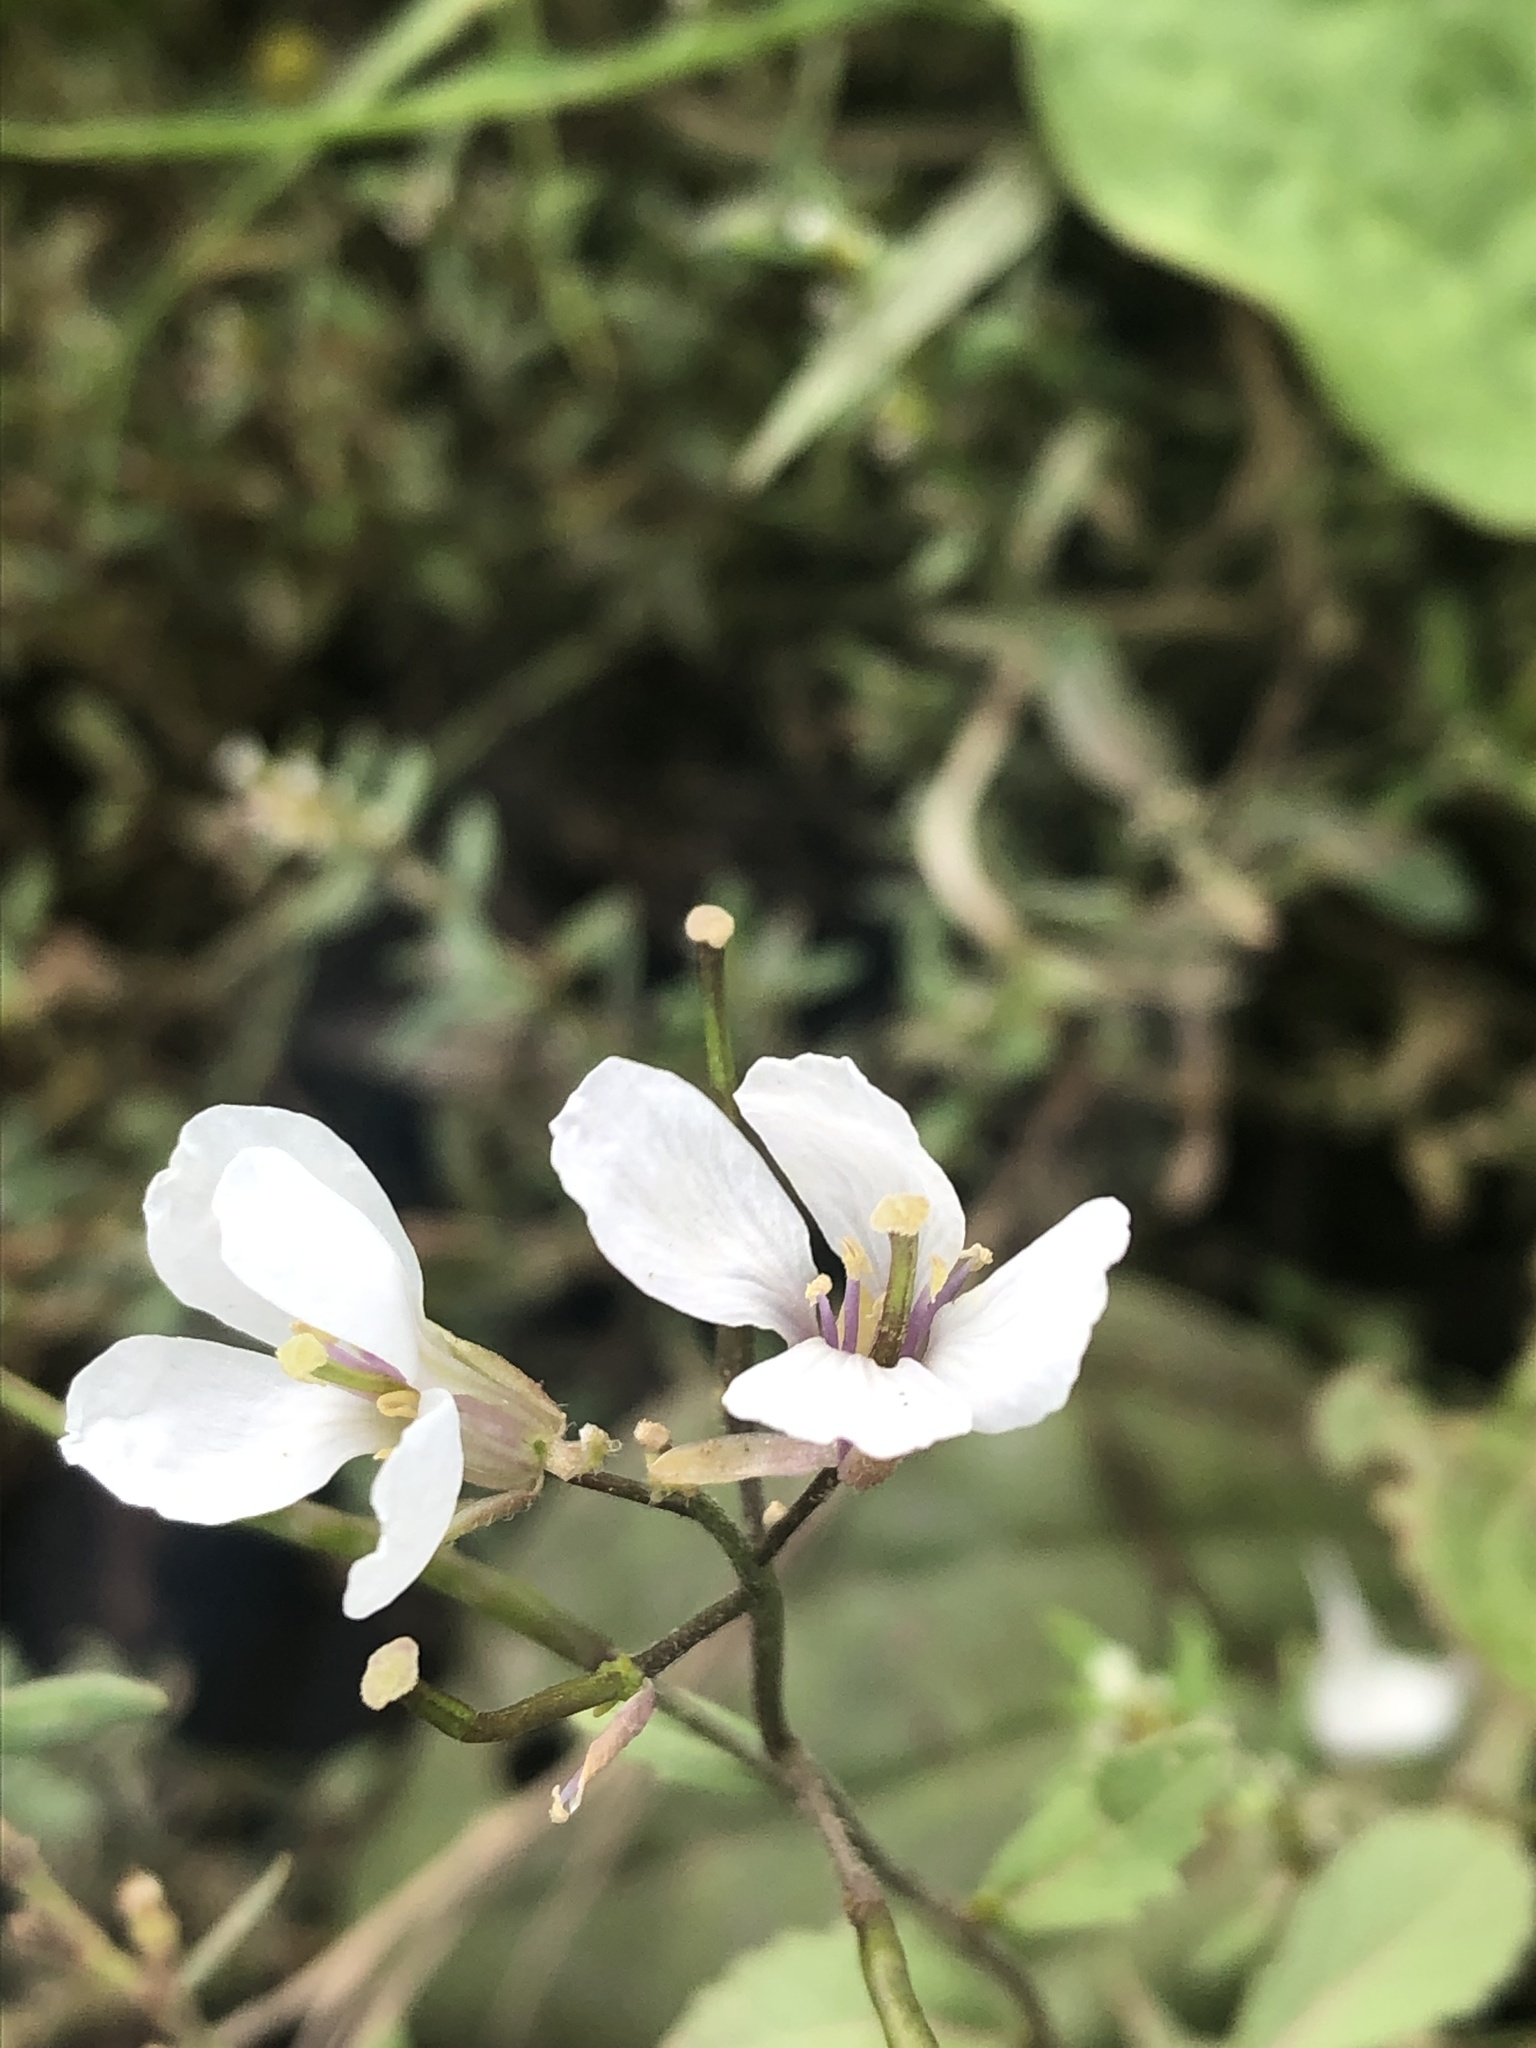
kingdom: Plantae
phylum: Tracheophyta
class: Magnoliopsida
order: Brassicales
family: Brassicaceae
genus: Diplotaxis
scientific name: Diplotaxis erucoides
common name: White rocket
